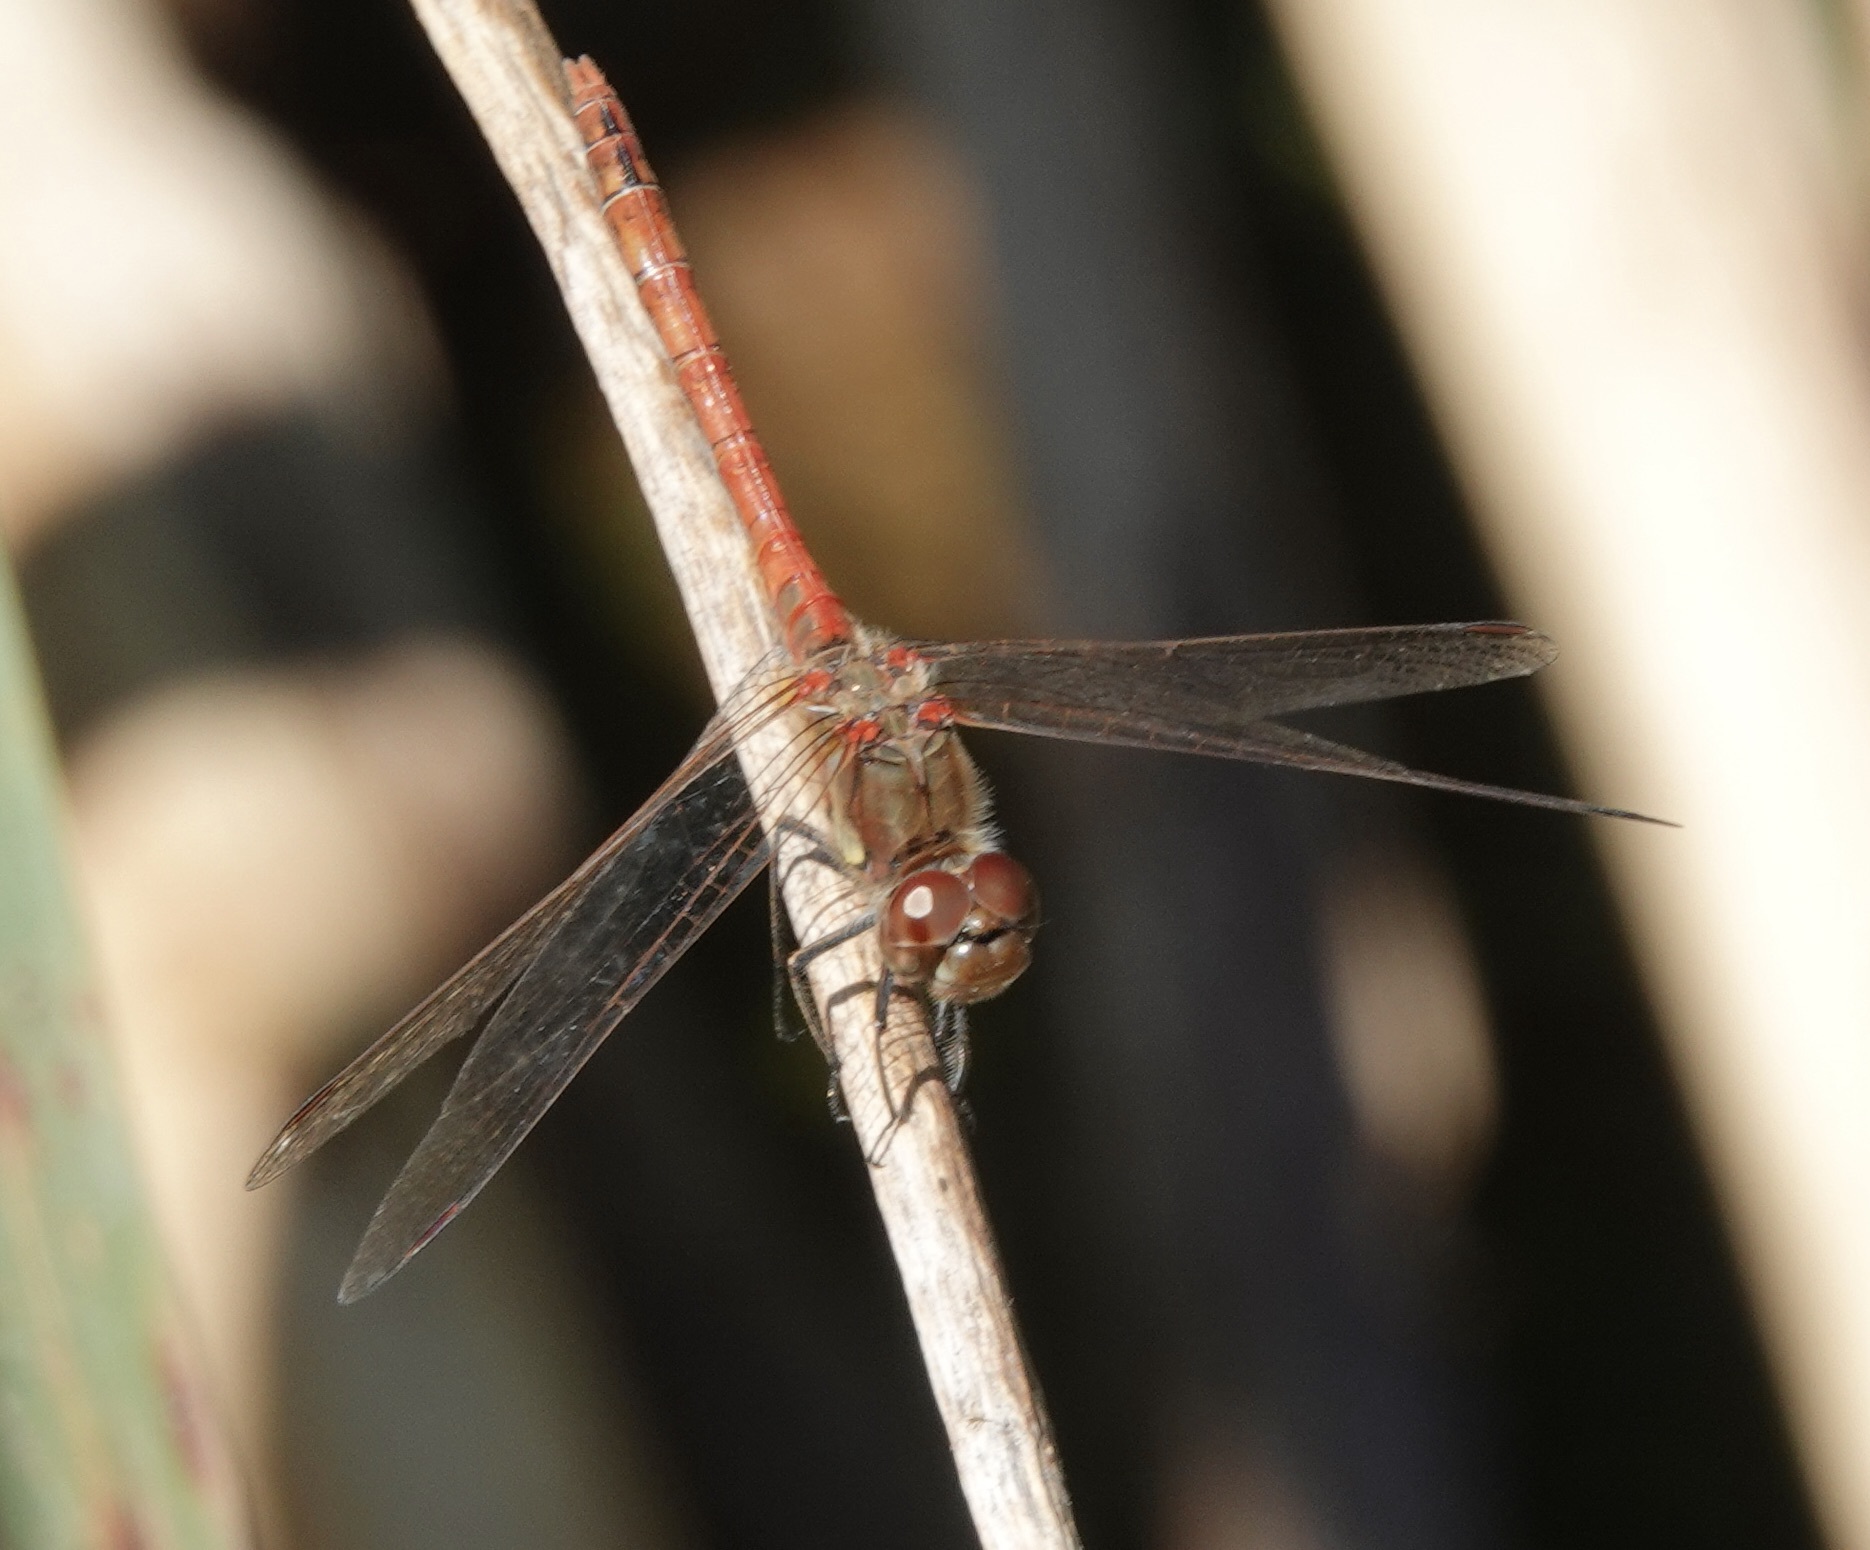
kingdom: Animalia
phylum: Arthropoda
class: Insecta
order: Odonata
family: Libellulidae
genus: Sympetrum
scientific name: Sympetrum striolatum
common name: Common darter
